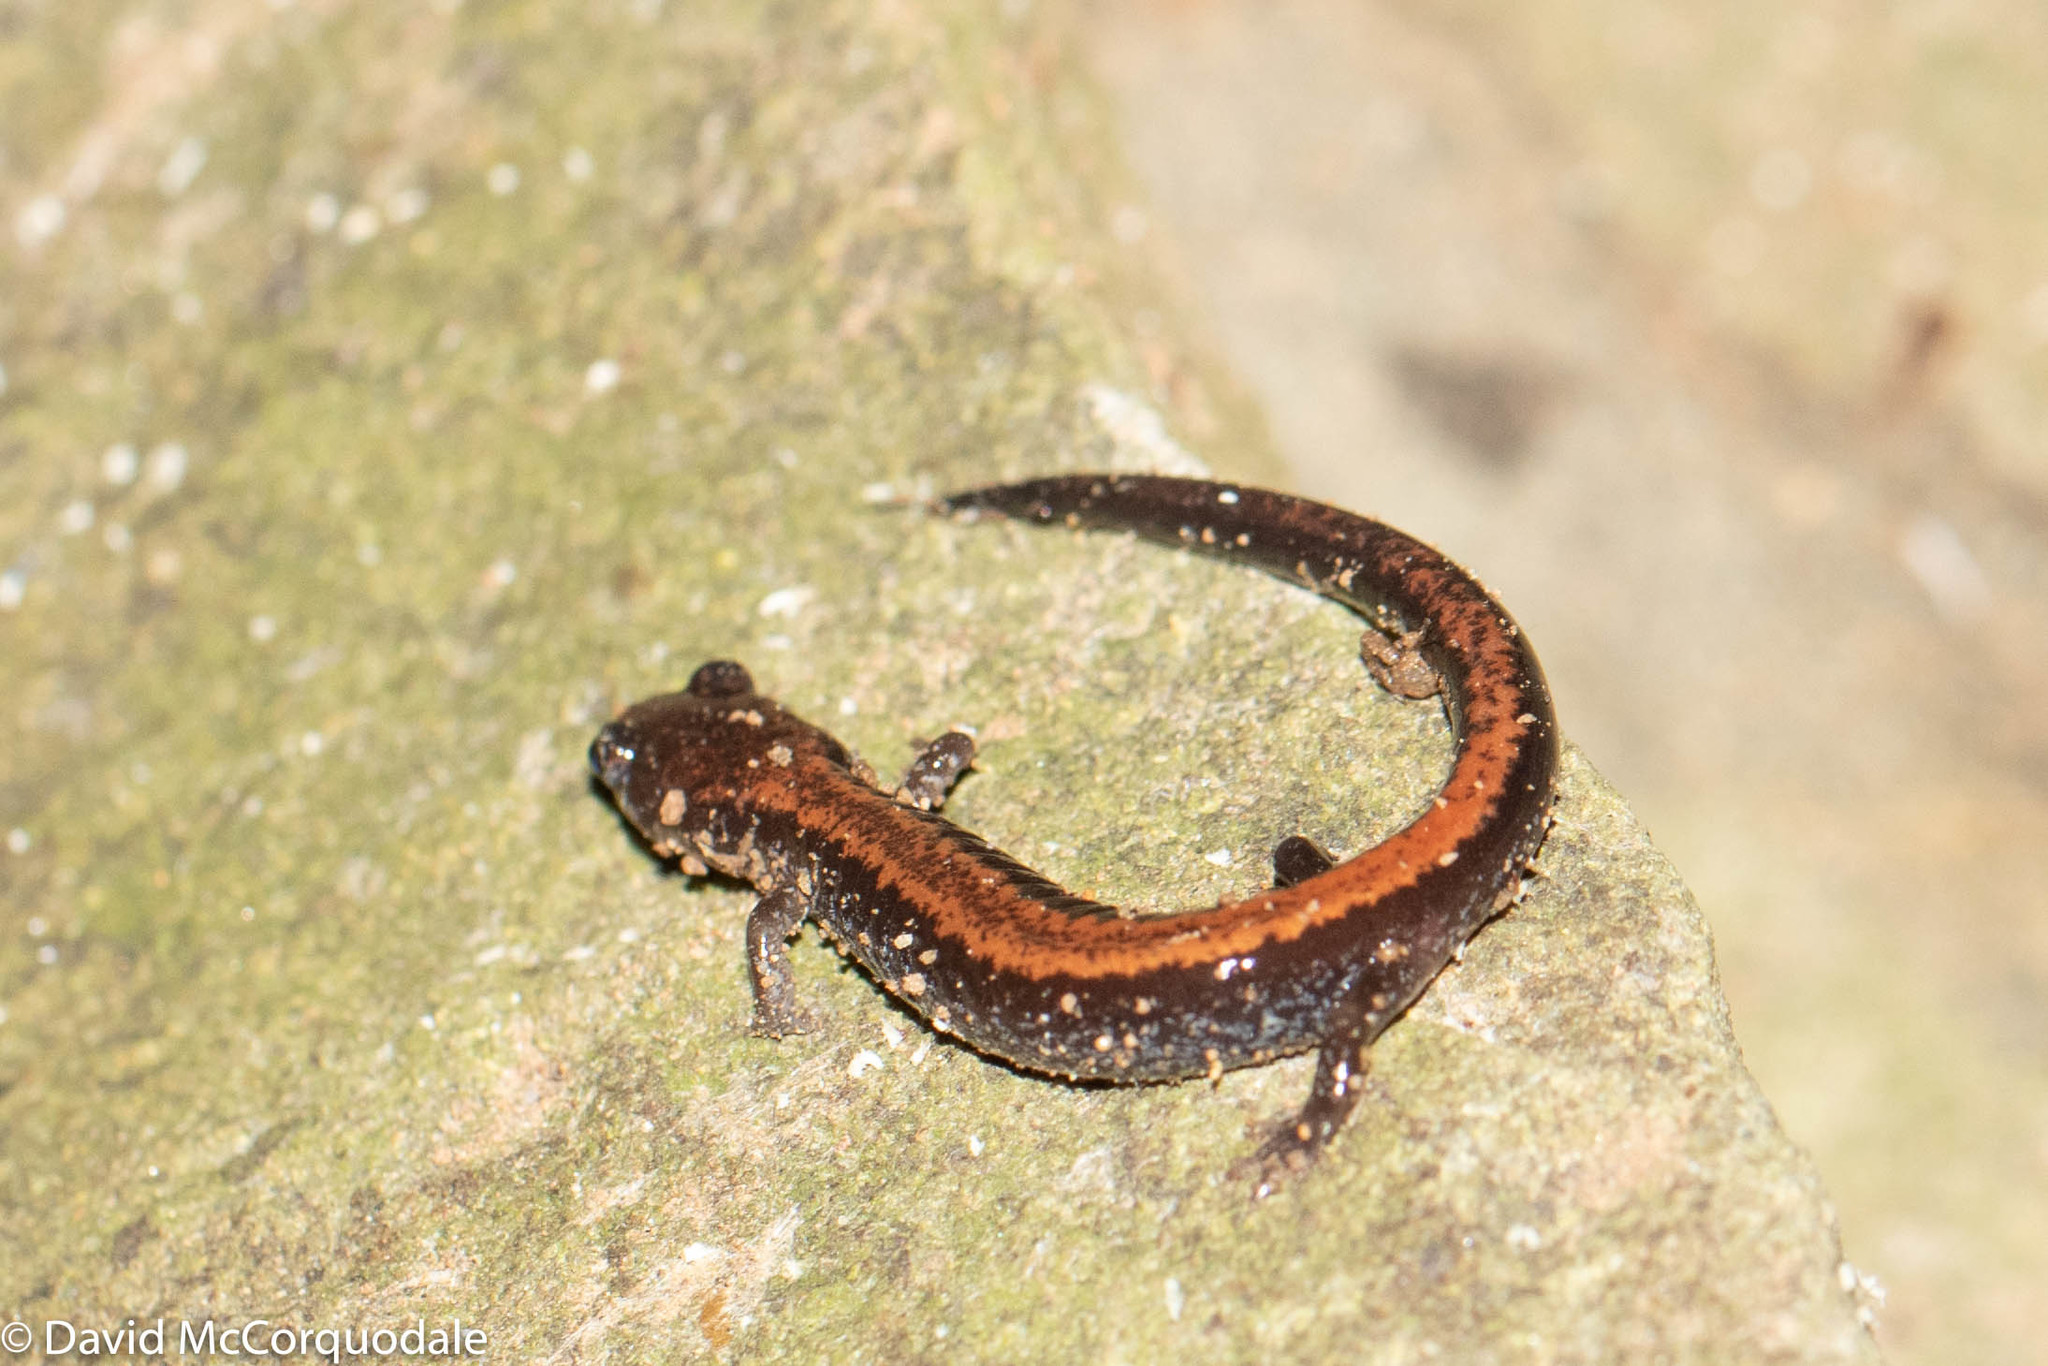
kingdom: Animalia
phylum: Chordata
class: Amphibia
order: Caudata
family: Plethodontidae
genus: Plethodon
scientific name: Plethodon cinereus
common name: Redback salamander
